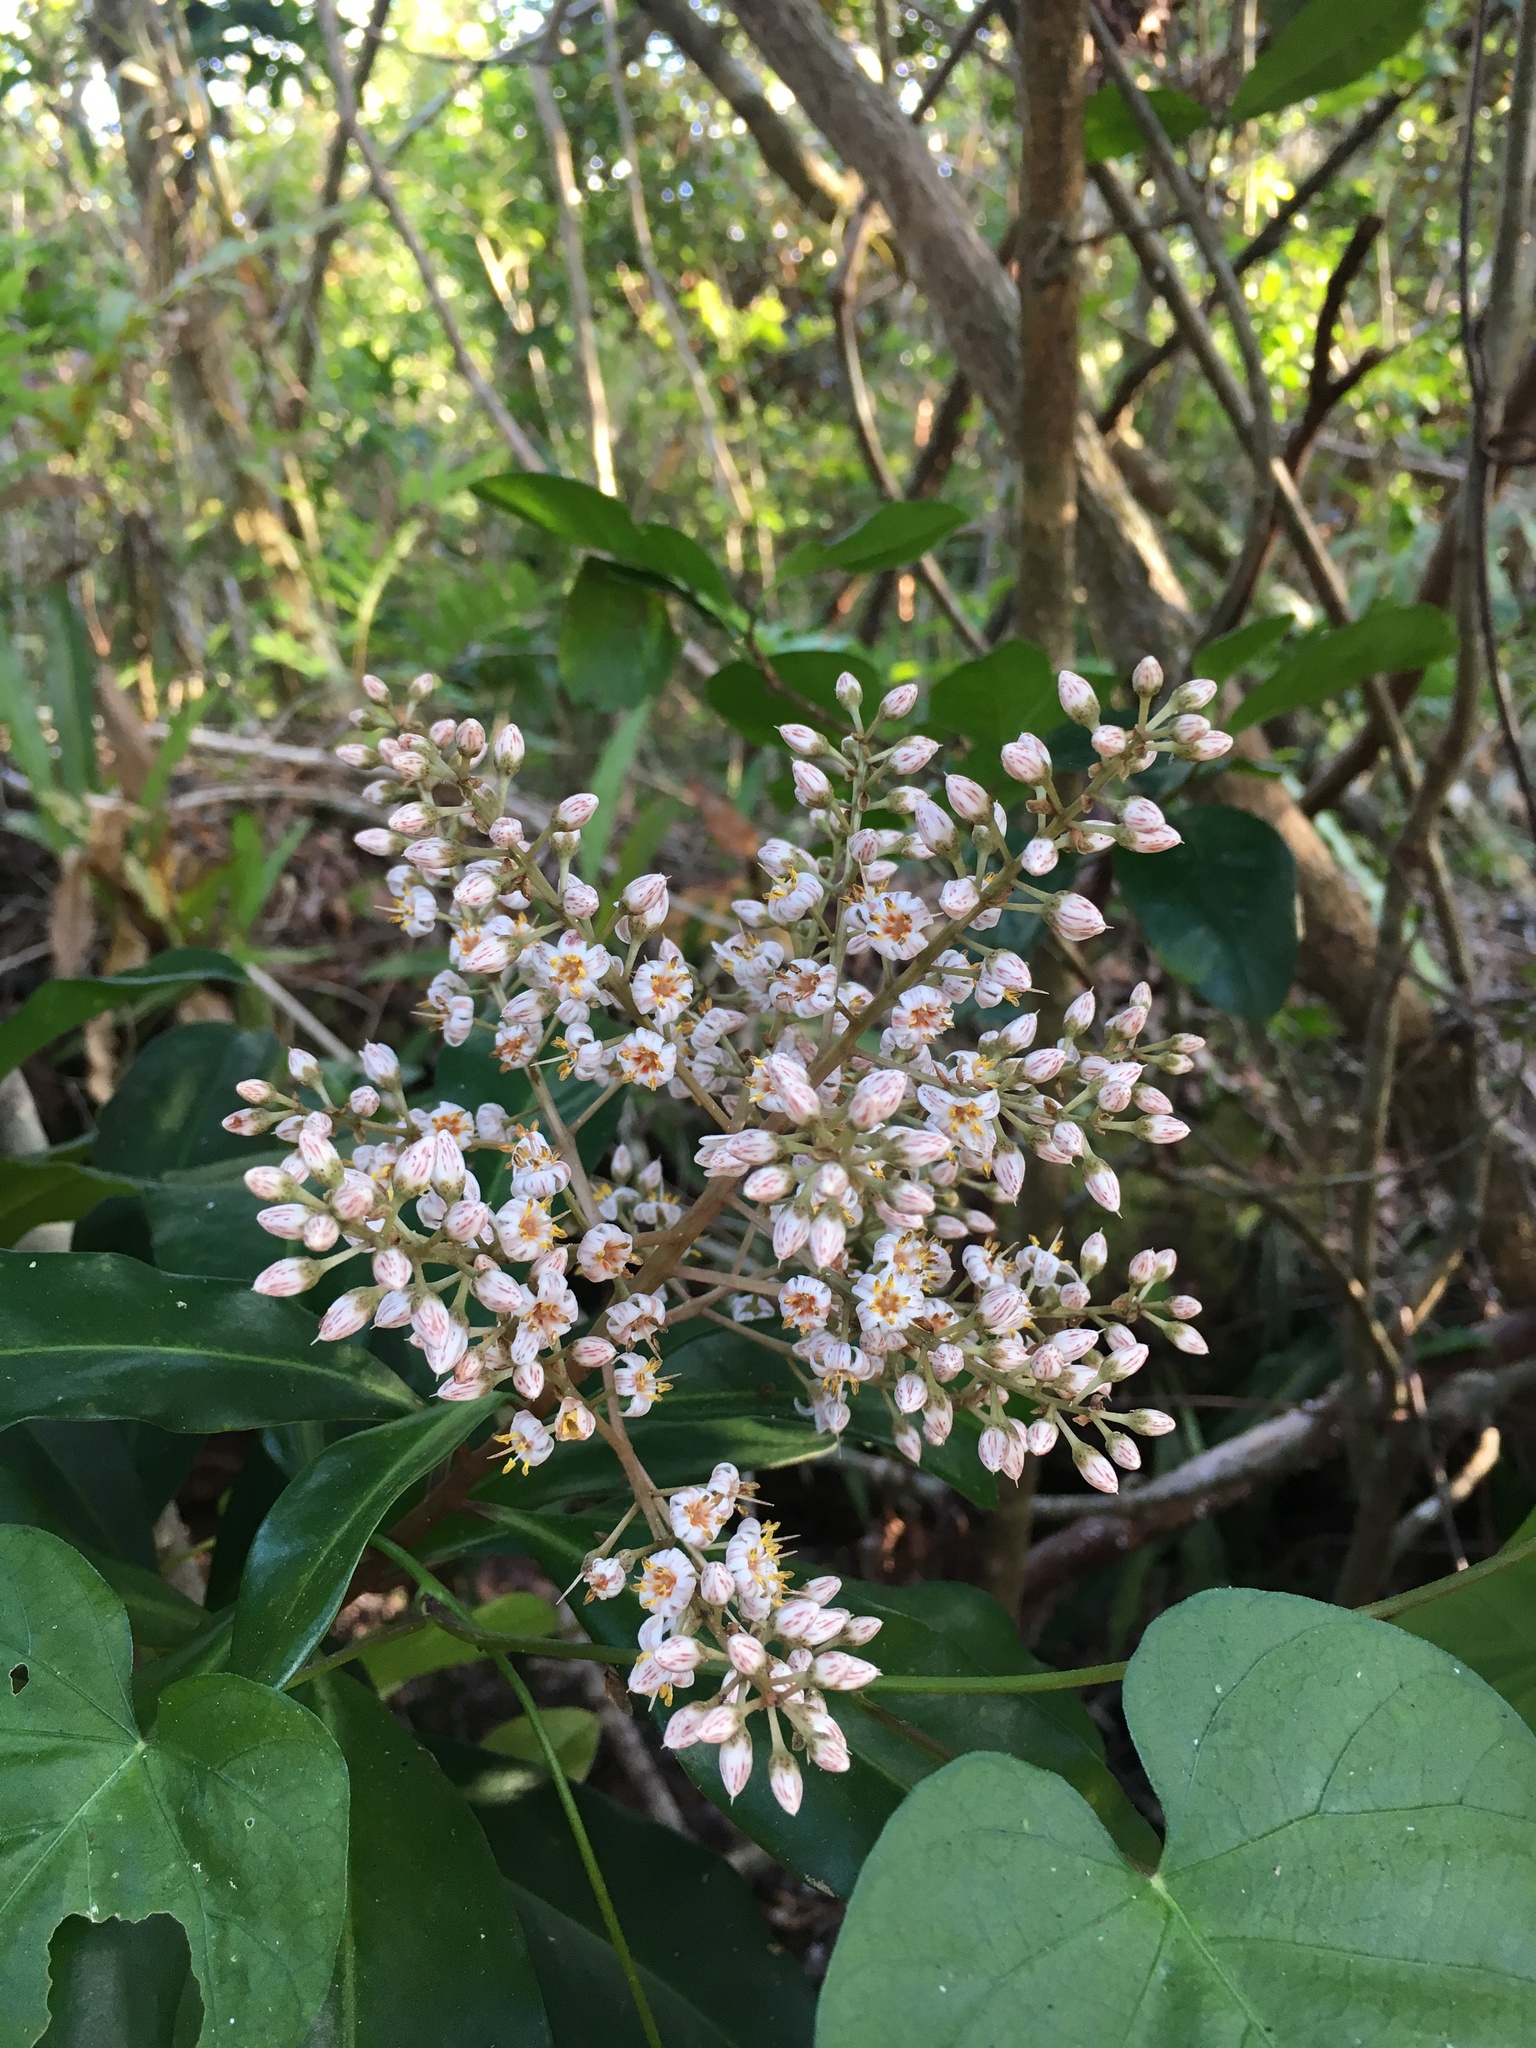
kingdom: Plantae
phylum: Tracheophyta
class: Magnoliopsida
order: Ericales
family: Primulaceae
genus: Ardisia
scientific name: Ardisia escallonioides
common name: Island marlberry
